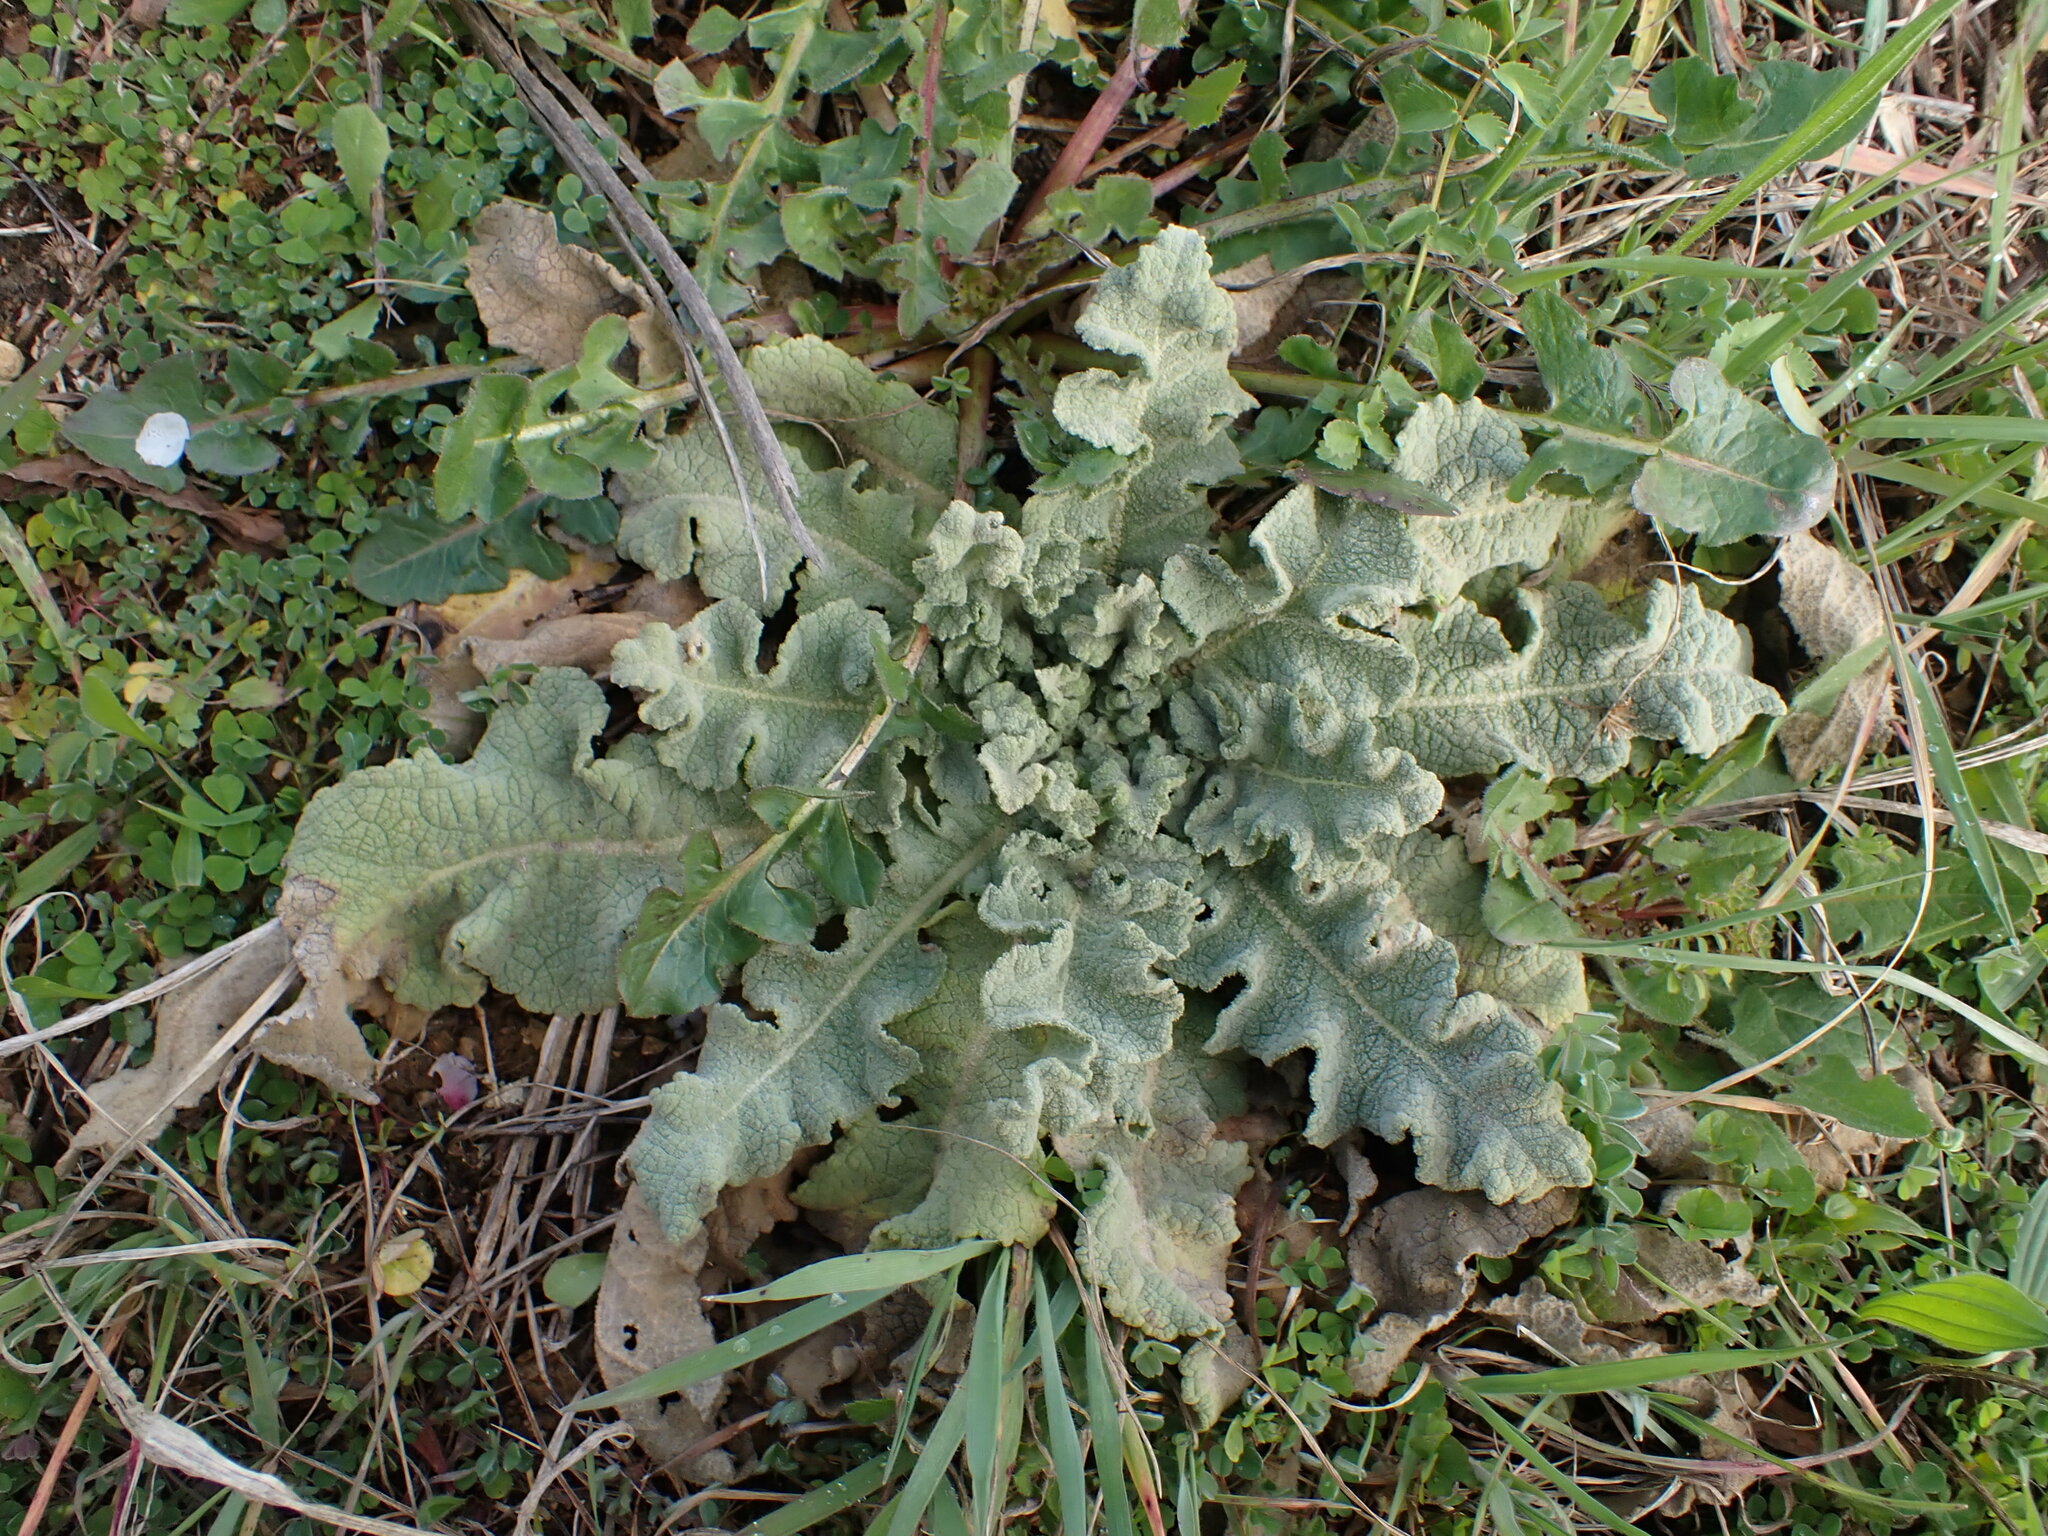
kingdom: Plantae
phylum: Tracheophyta
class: Magnoliopsida
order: Lamiales
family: Scrophulariaceae
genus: Verbascum
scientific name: Verbascum sinuatum
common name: Wavyleaf mullein
